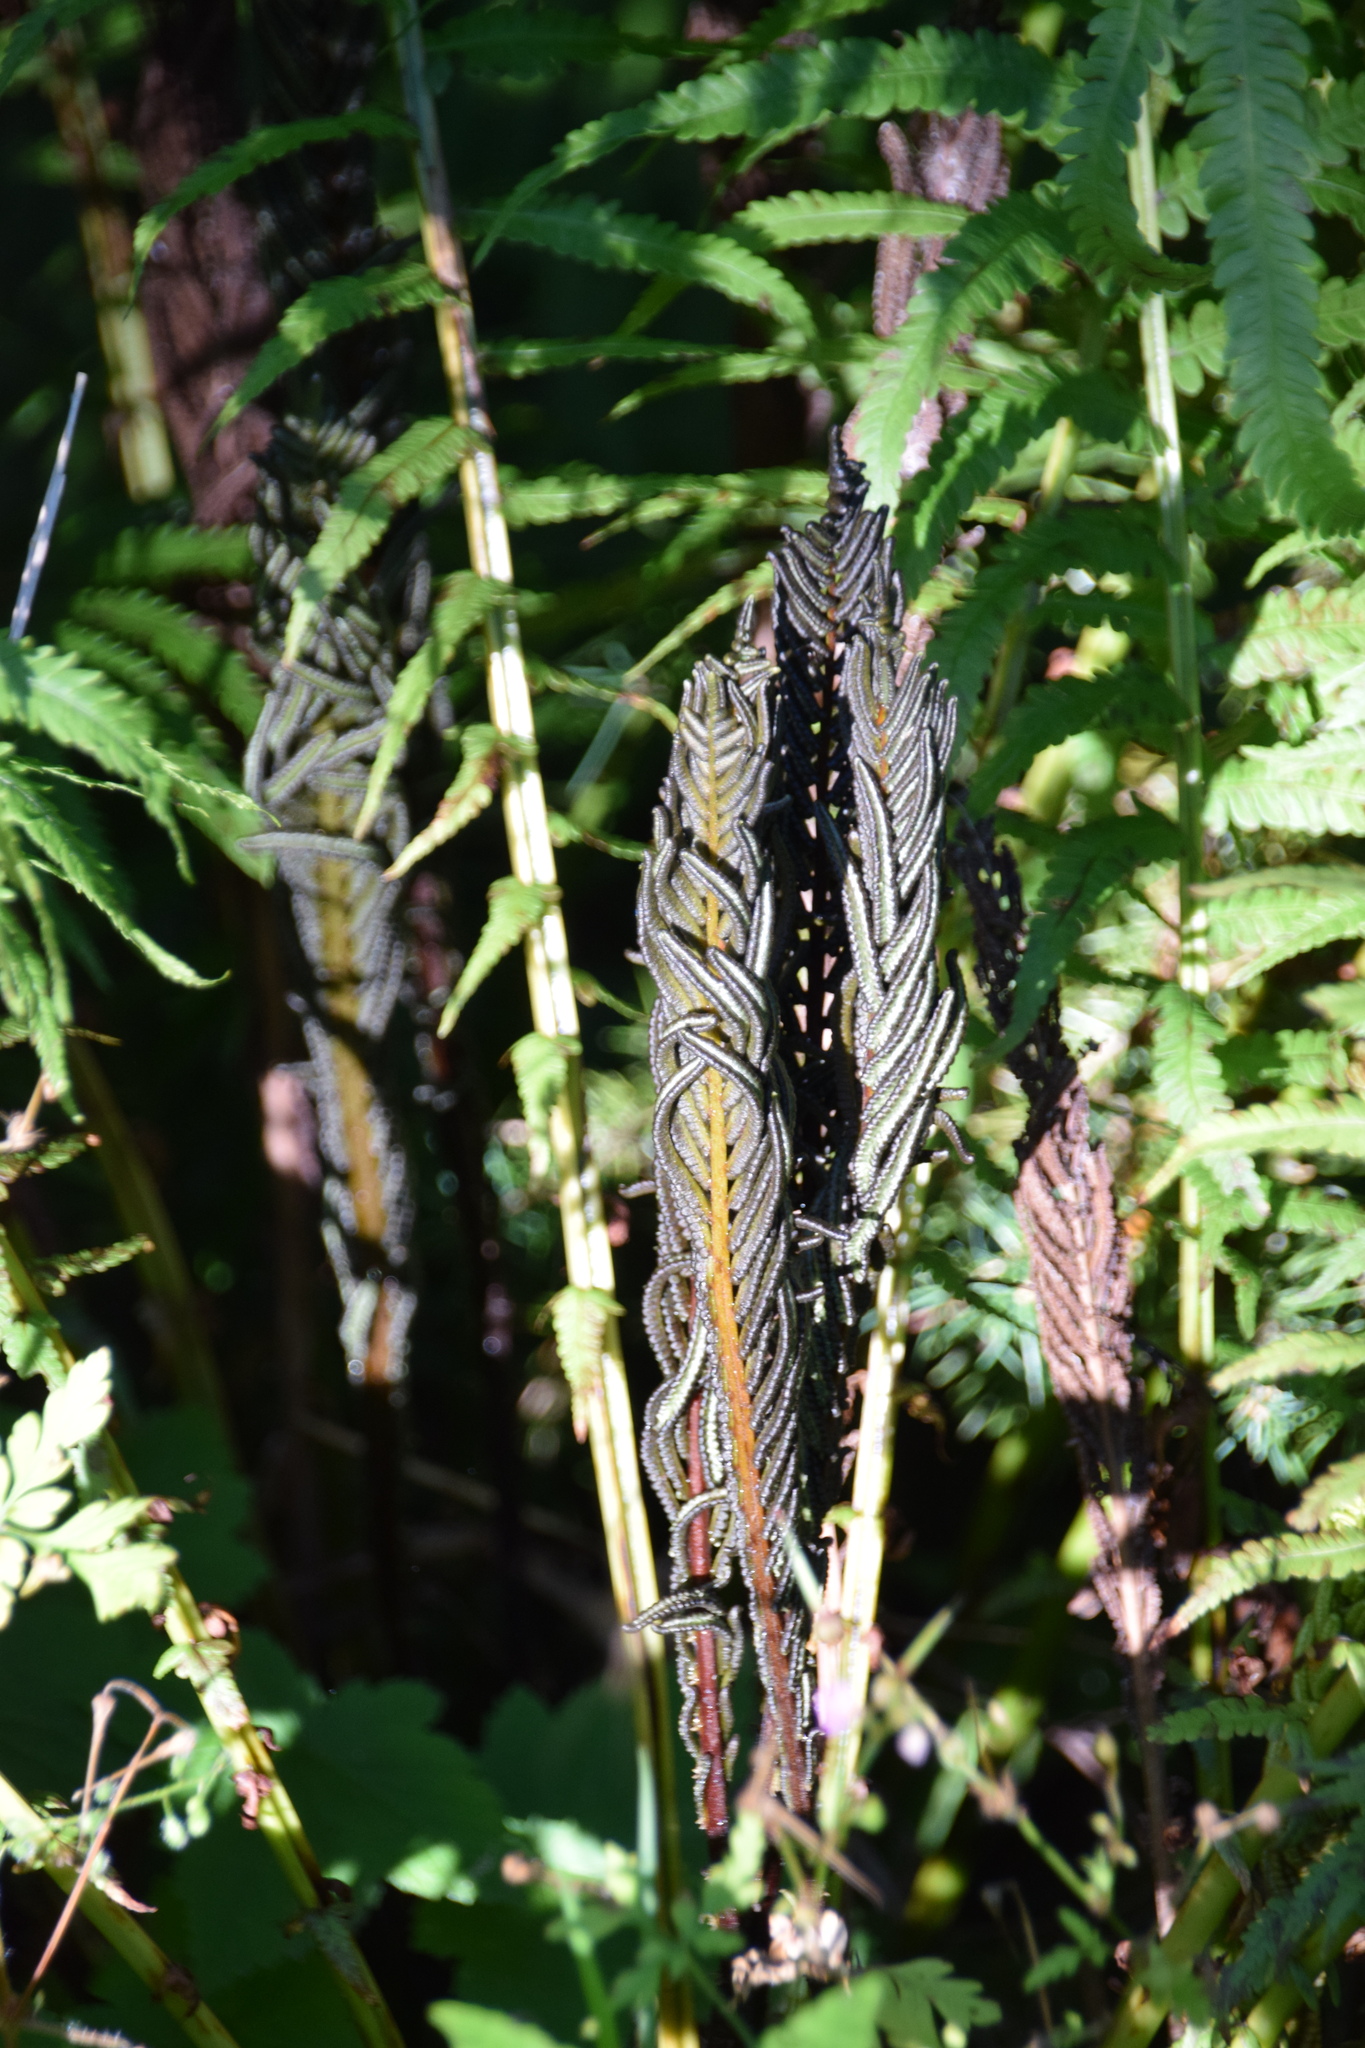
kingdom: Plantae
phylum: Tracheophyta
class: Polypodiopsida
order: Polypodiales
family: Onocleaceae
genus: Matteuccia
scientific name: Matteuccia struthiopteris
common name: Ostrich fern
